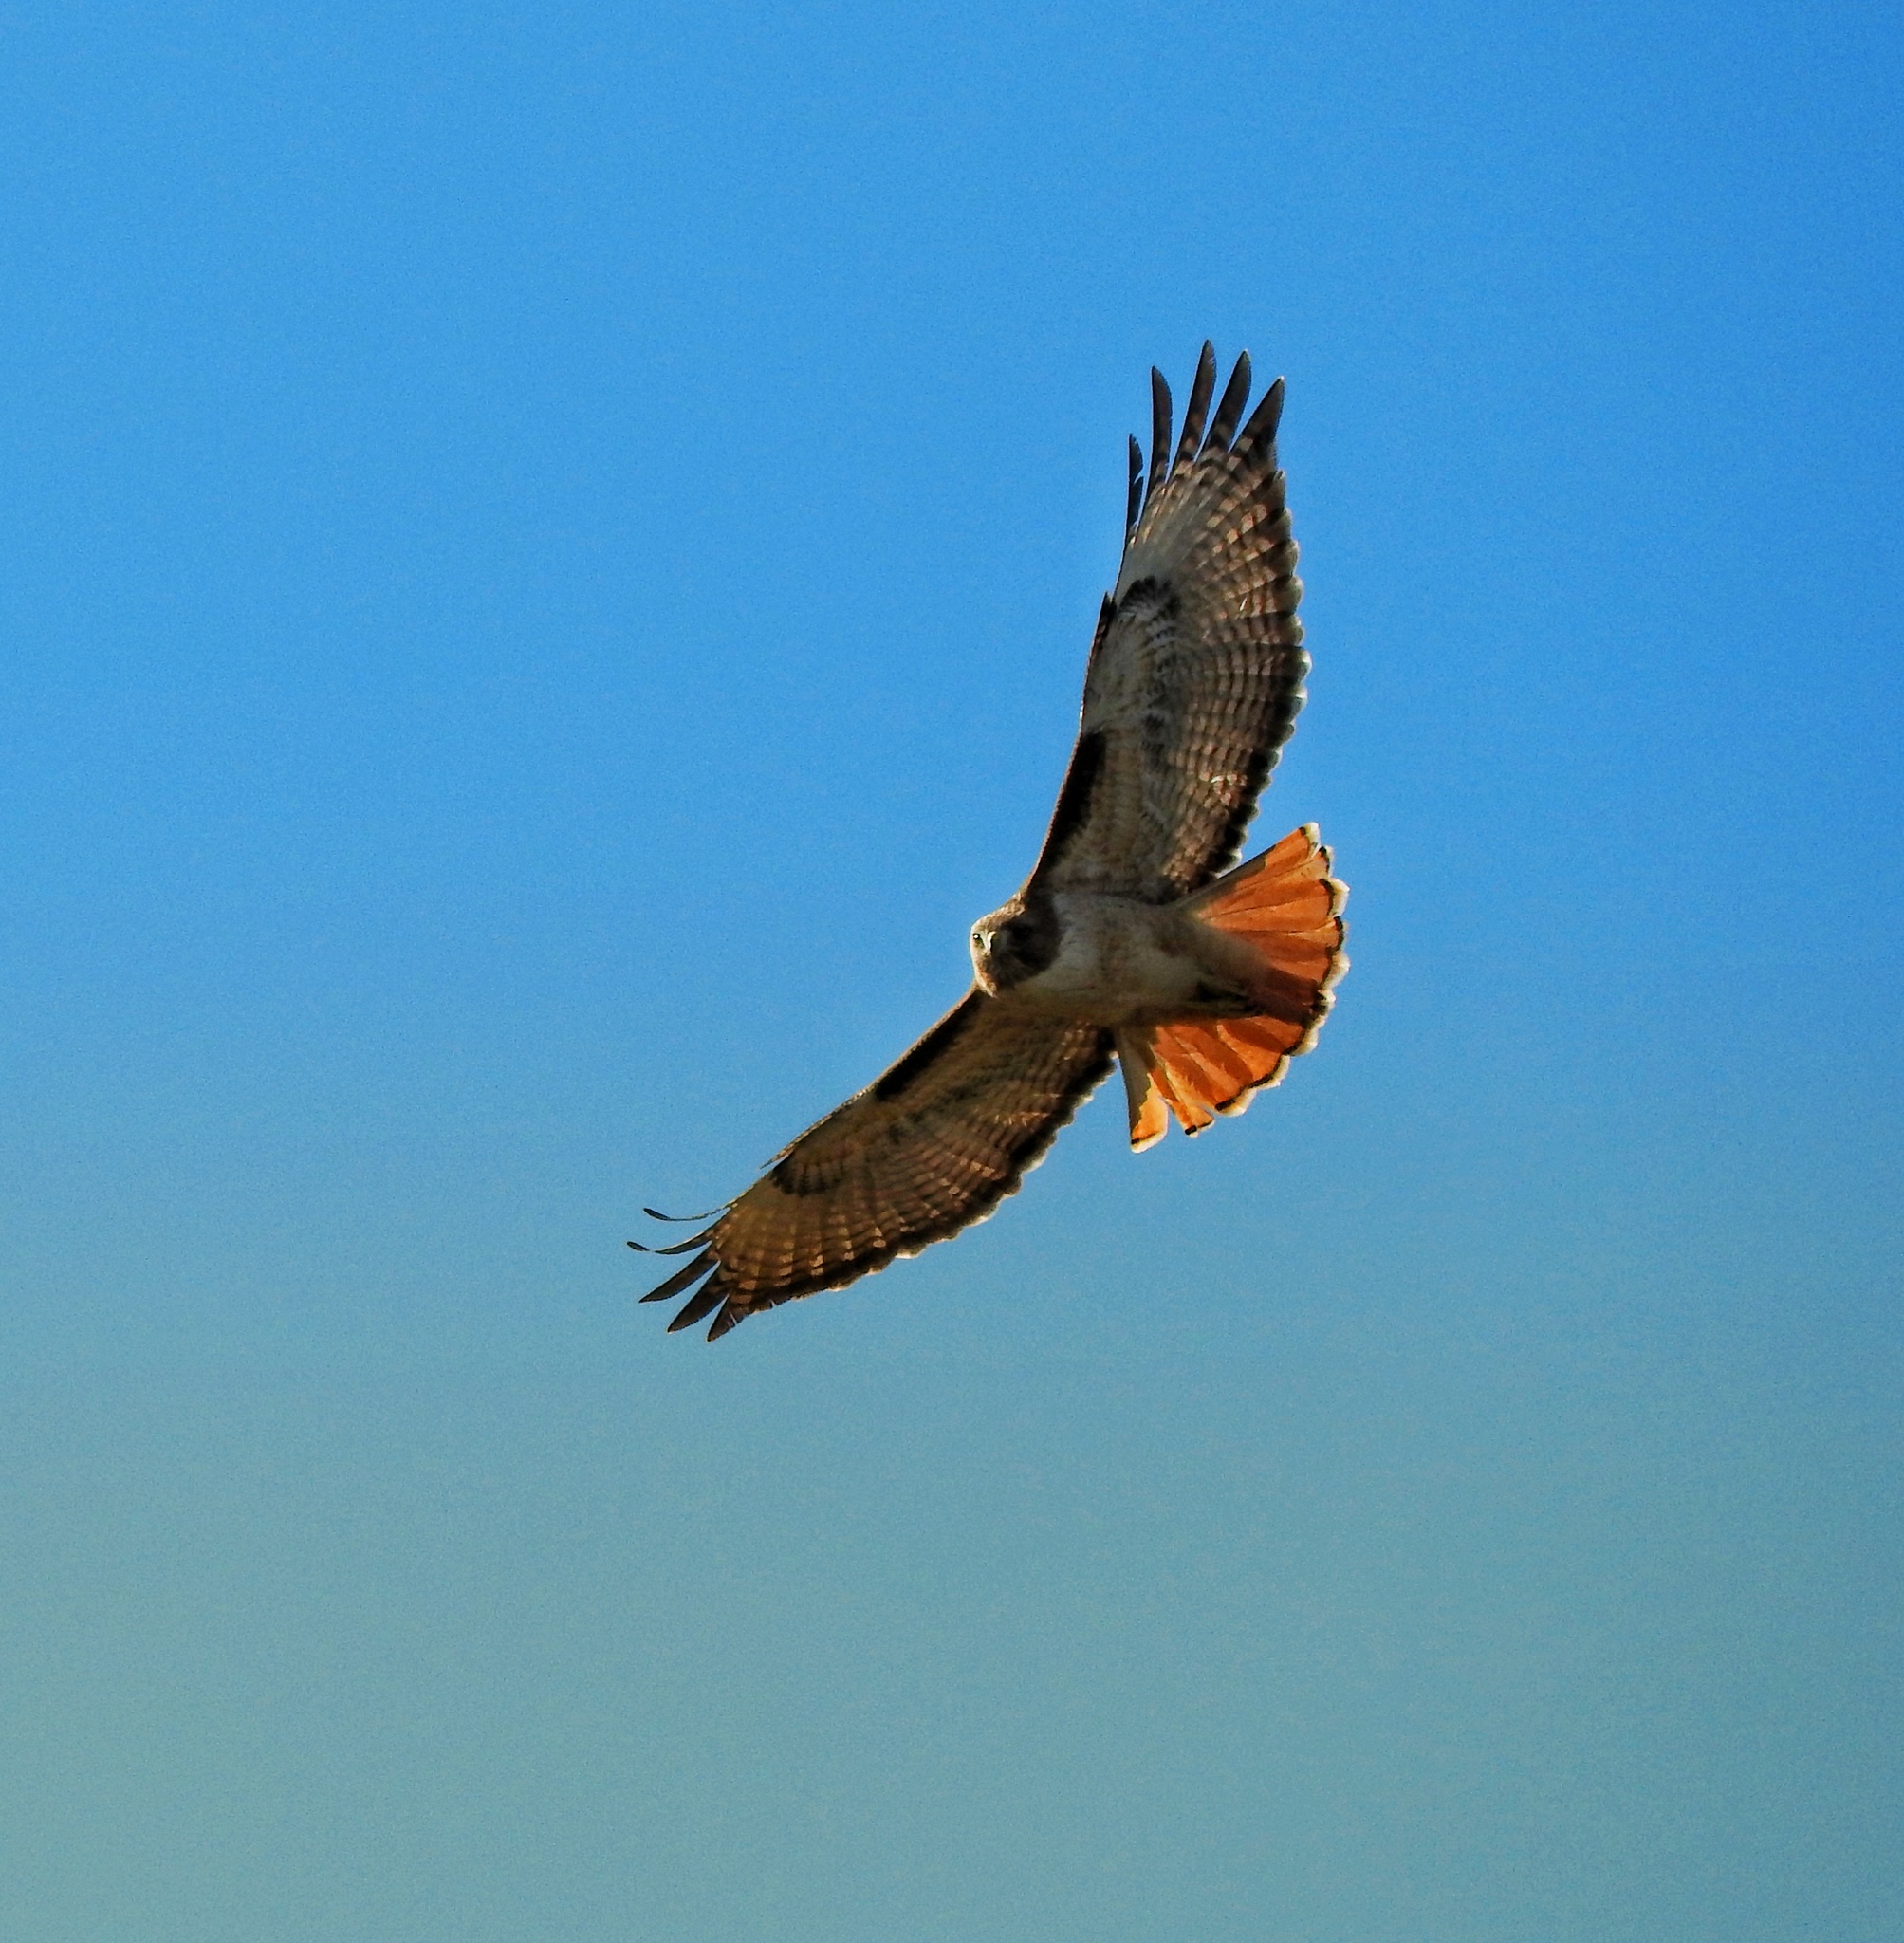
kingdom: Animalia
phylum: Chordata
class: Aves
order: Accipitriformes
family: Accipitridae
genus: Buteo
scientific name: Buteo jamaicensis
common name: Red-tailed hawk
